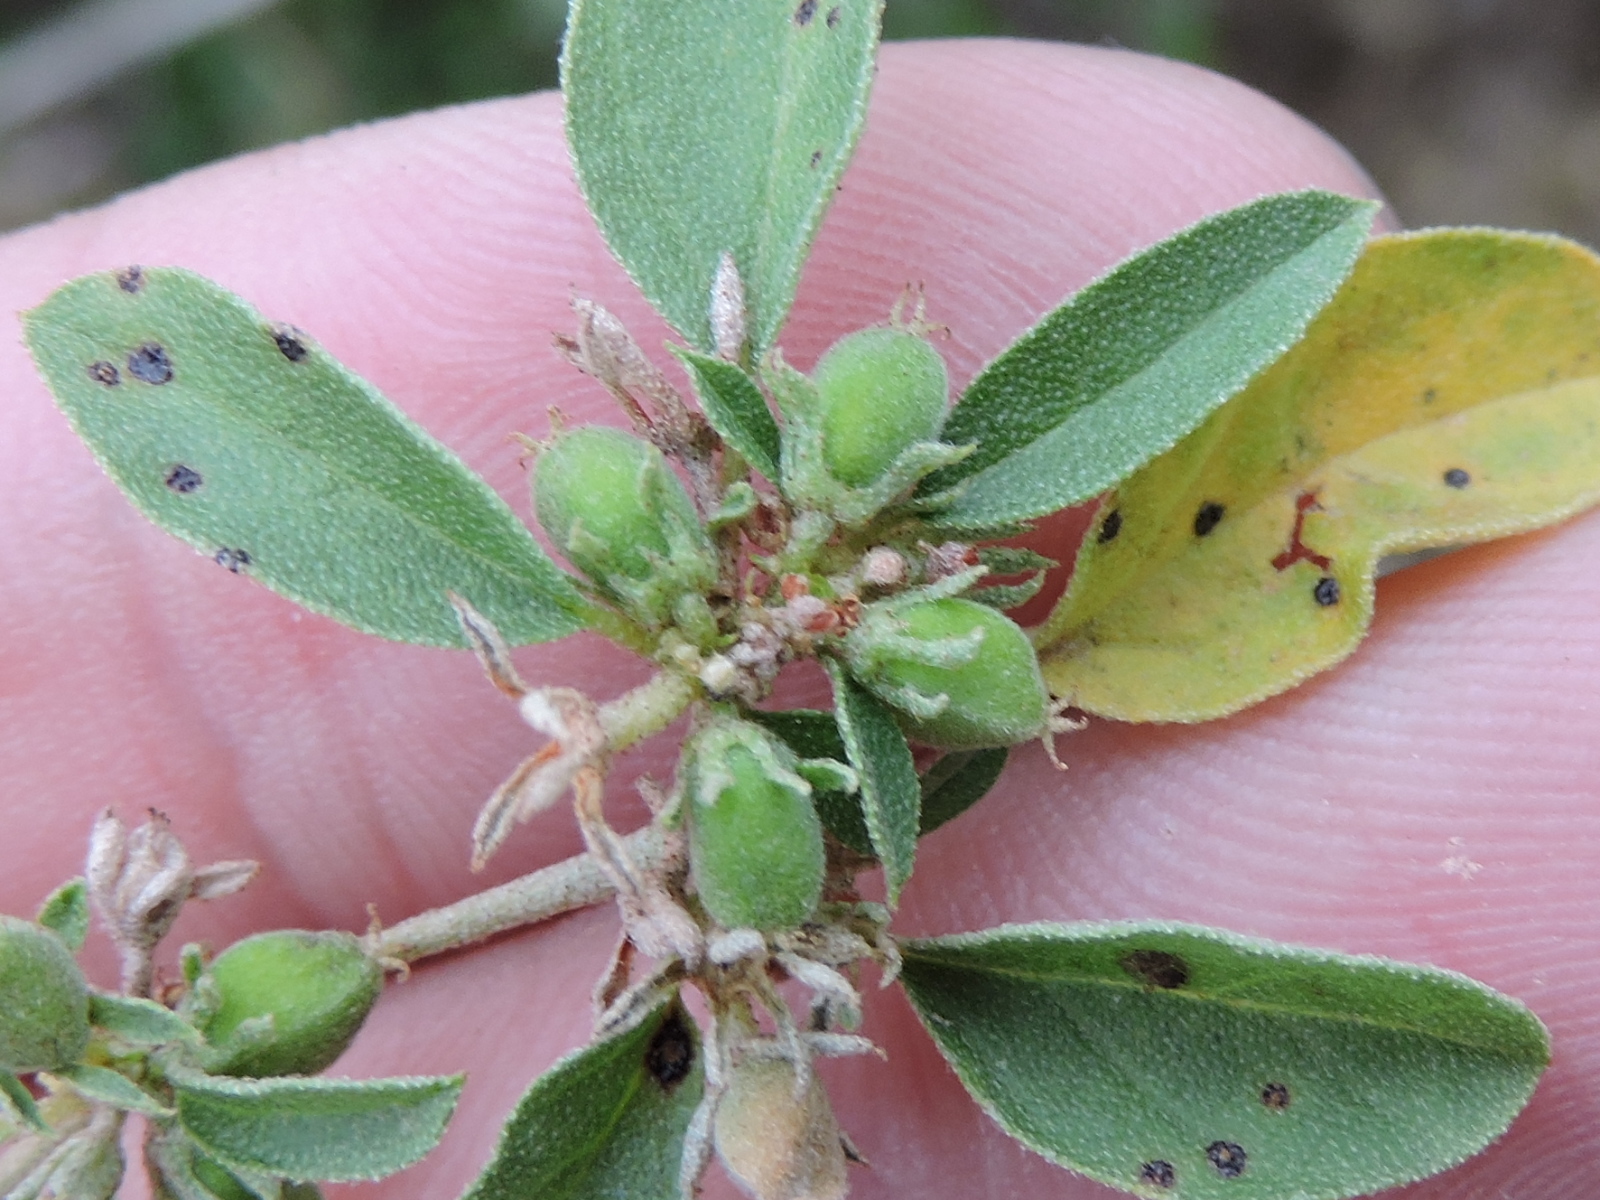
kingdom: Plantae
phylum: Tracheophyta
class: Magnoliopsida
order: Malpighiales
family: Euphorbiaceae
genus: Croton
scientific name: Croton monanthogynus
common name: One-seed croton
